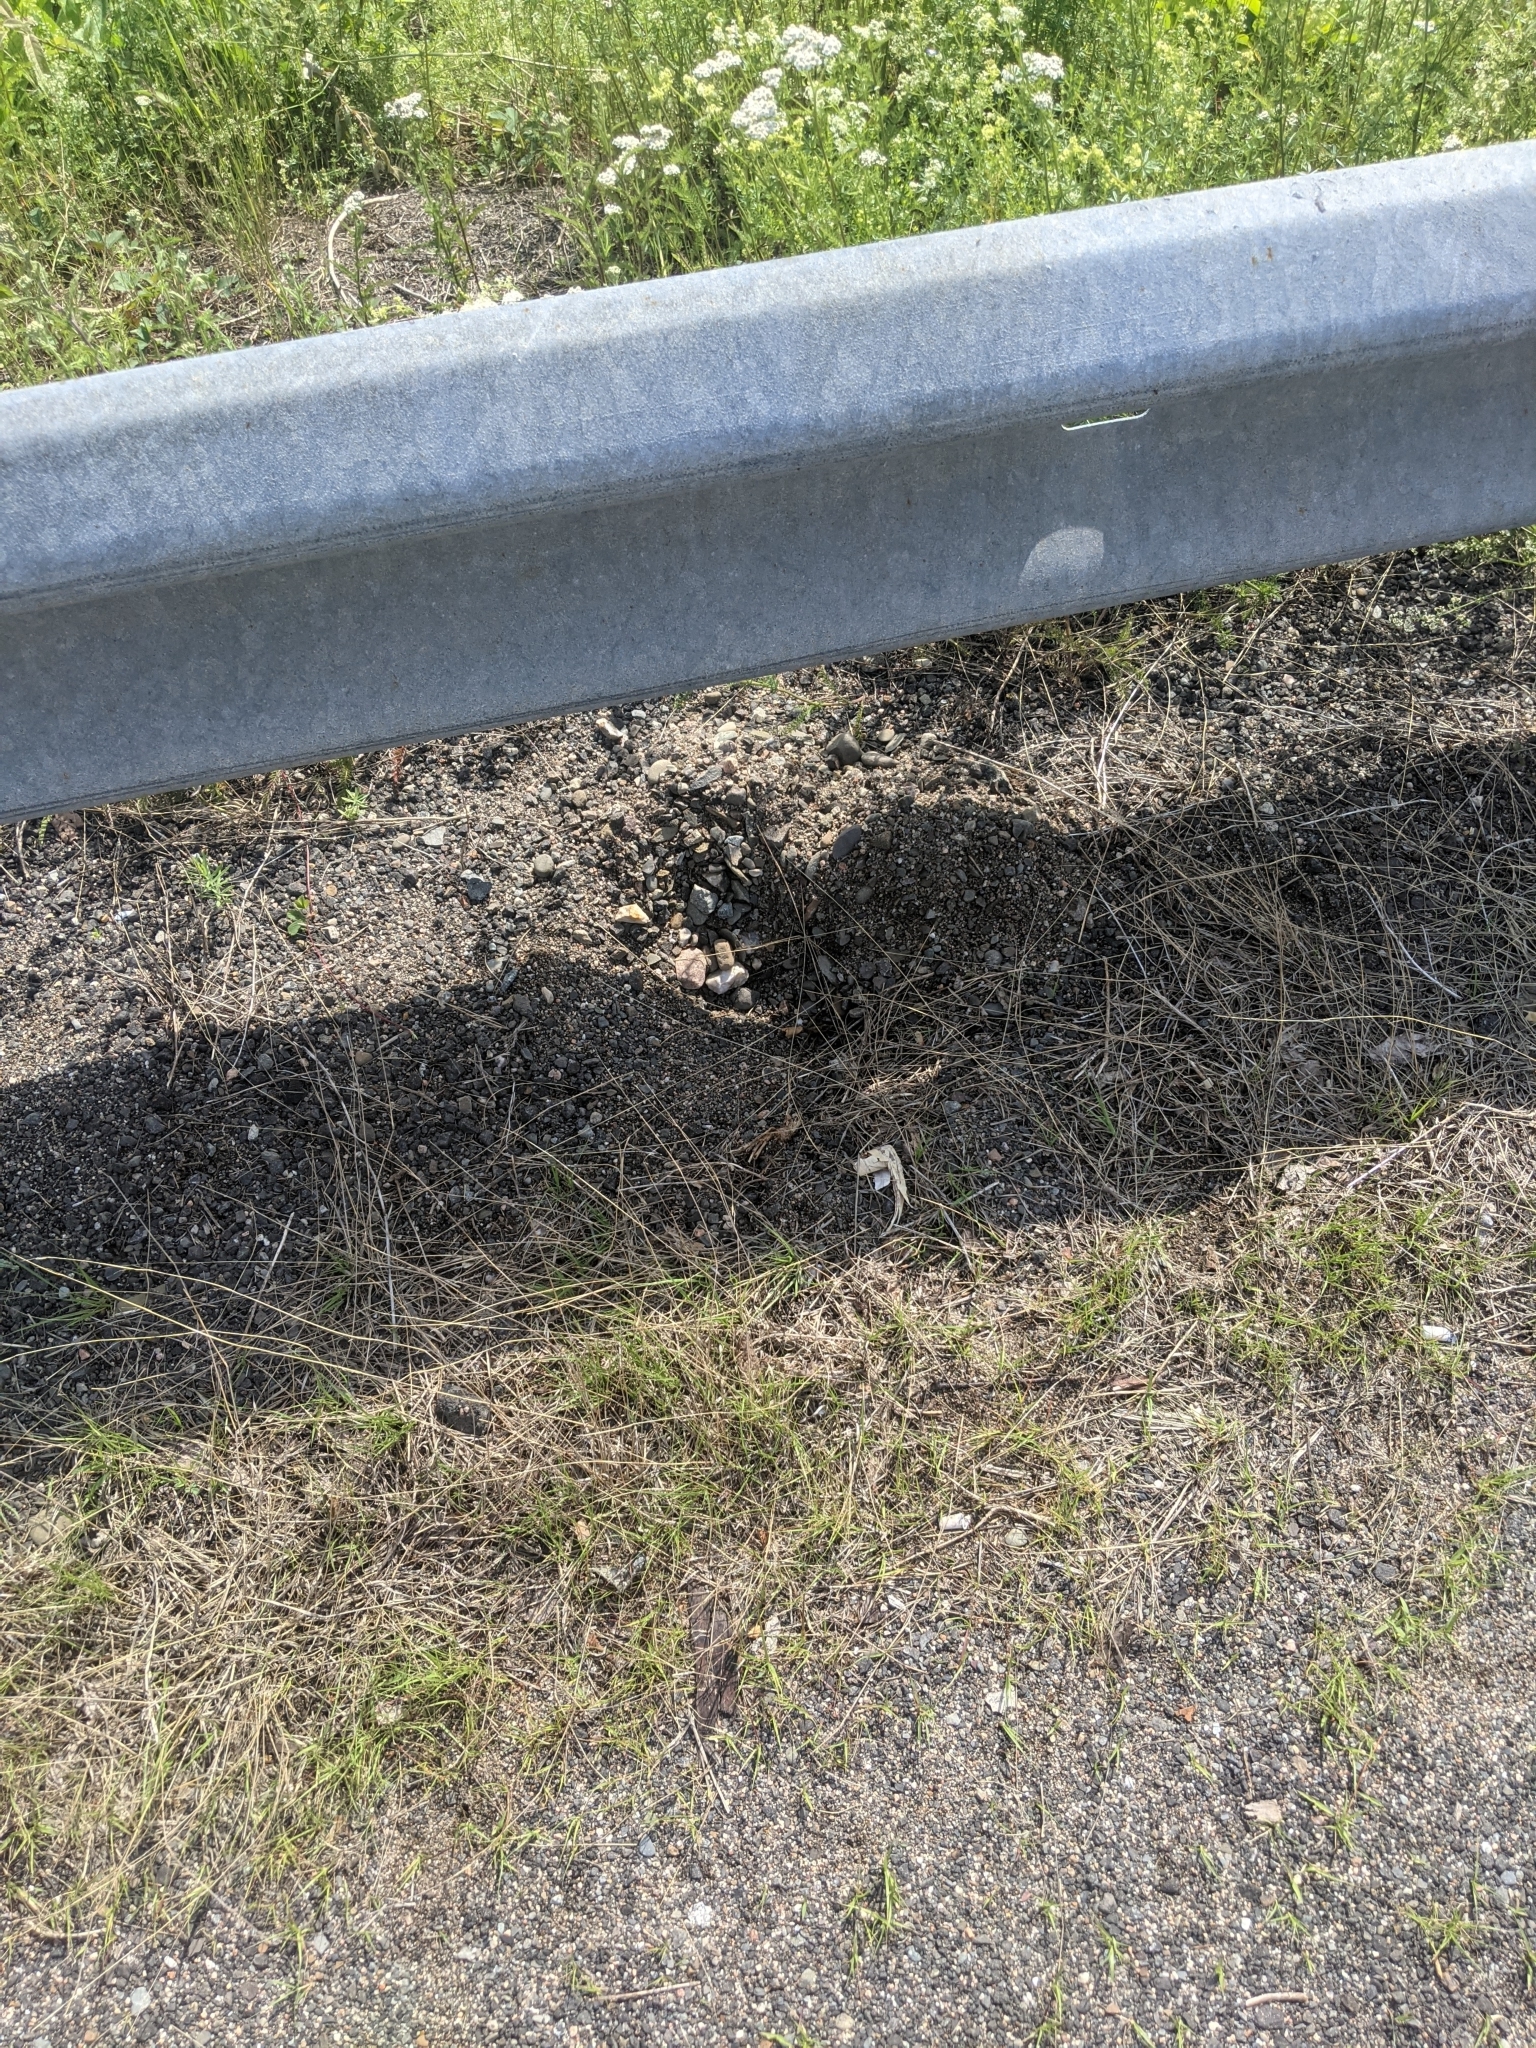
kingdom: Animalia
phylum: Chordata
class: Testudines
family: Chelydridae
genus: Chelydra
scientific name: Chelydra serpentina
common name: Common snapping turtle
